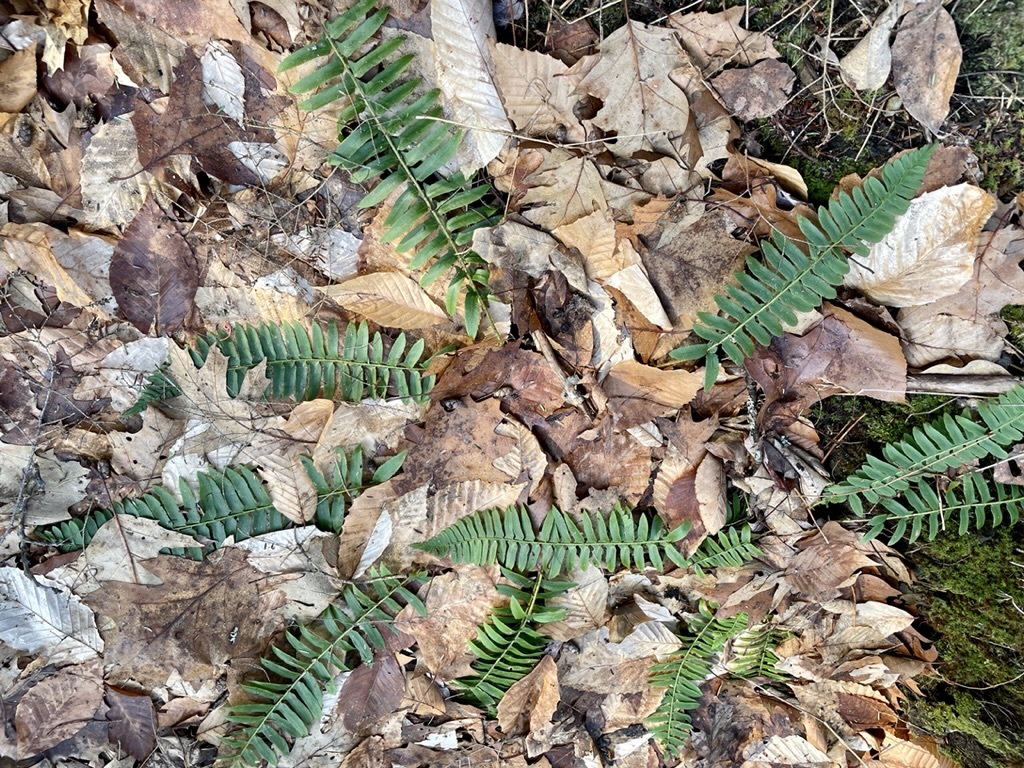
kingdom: Plantae
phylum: Tracheophyta
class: Polypodiopsida
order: Polypodiales
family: Dryopteridaceae
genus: Polystichum
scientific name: Polystichum acrostichoides
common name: Christmas fern
